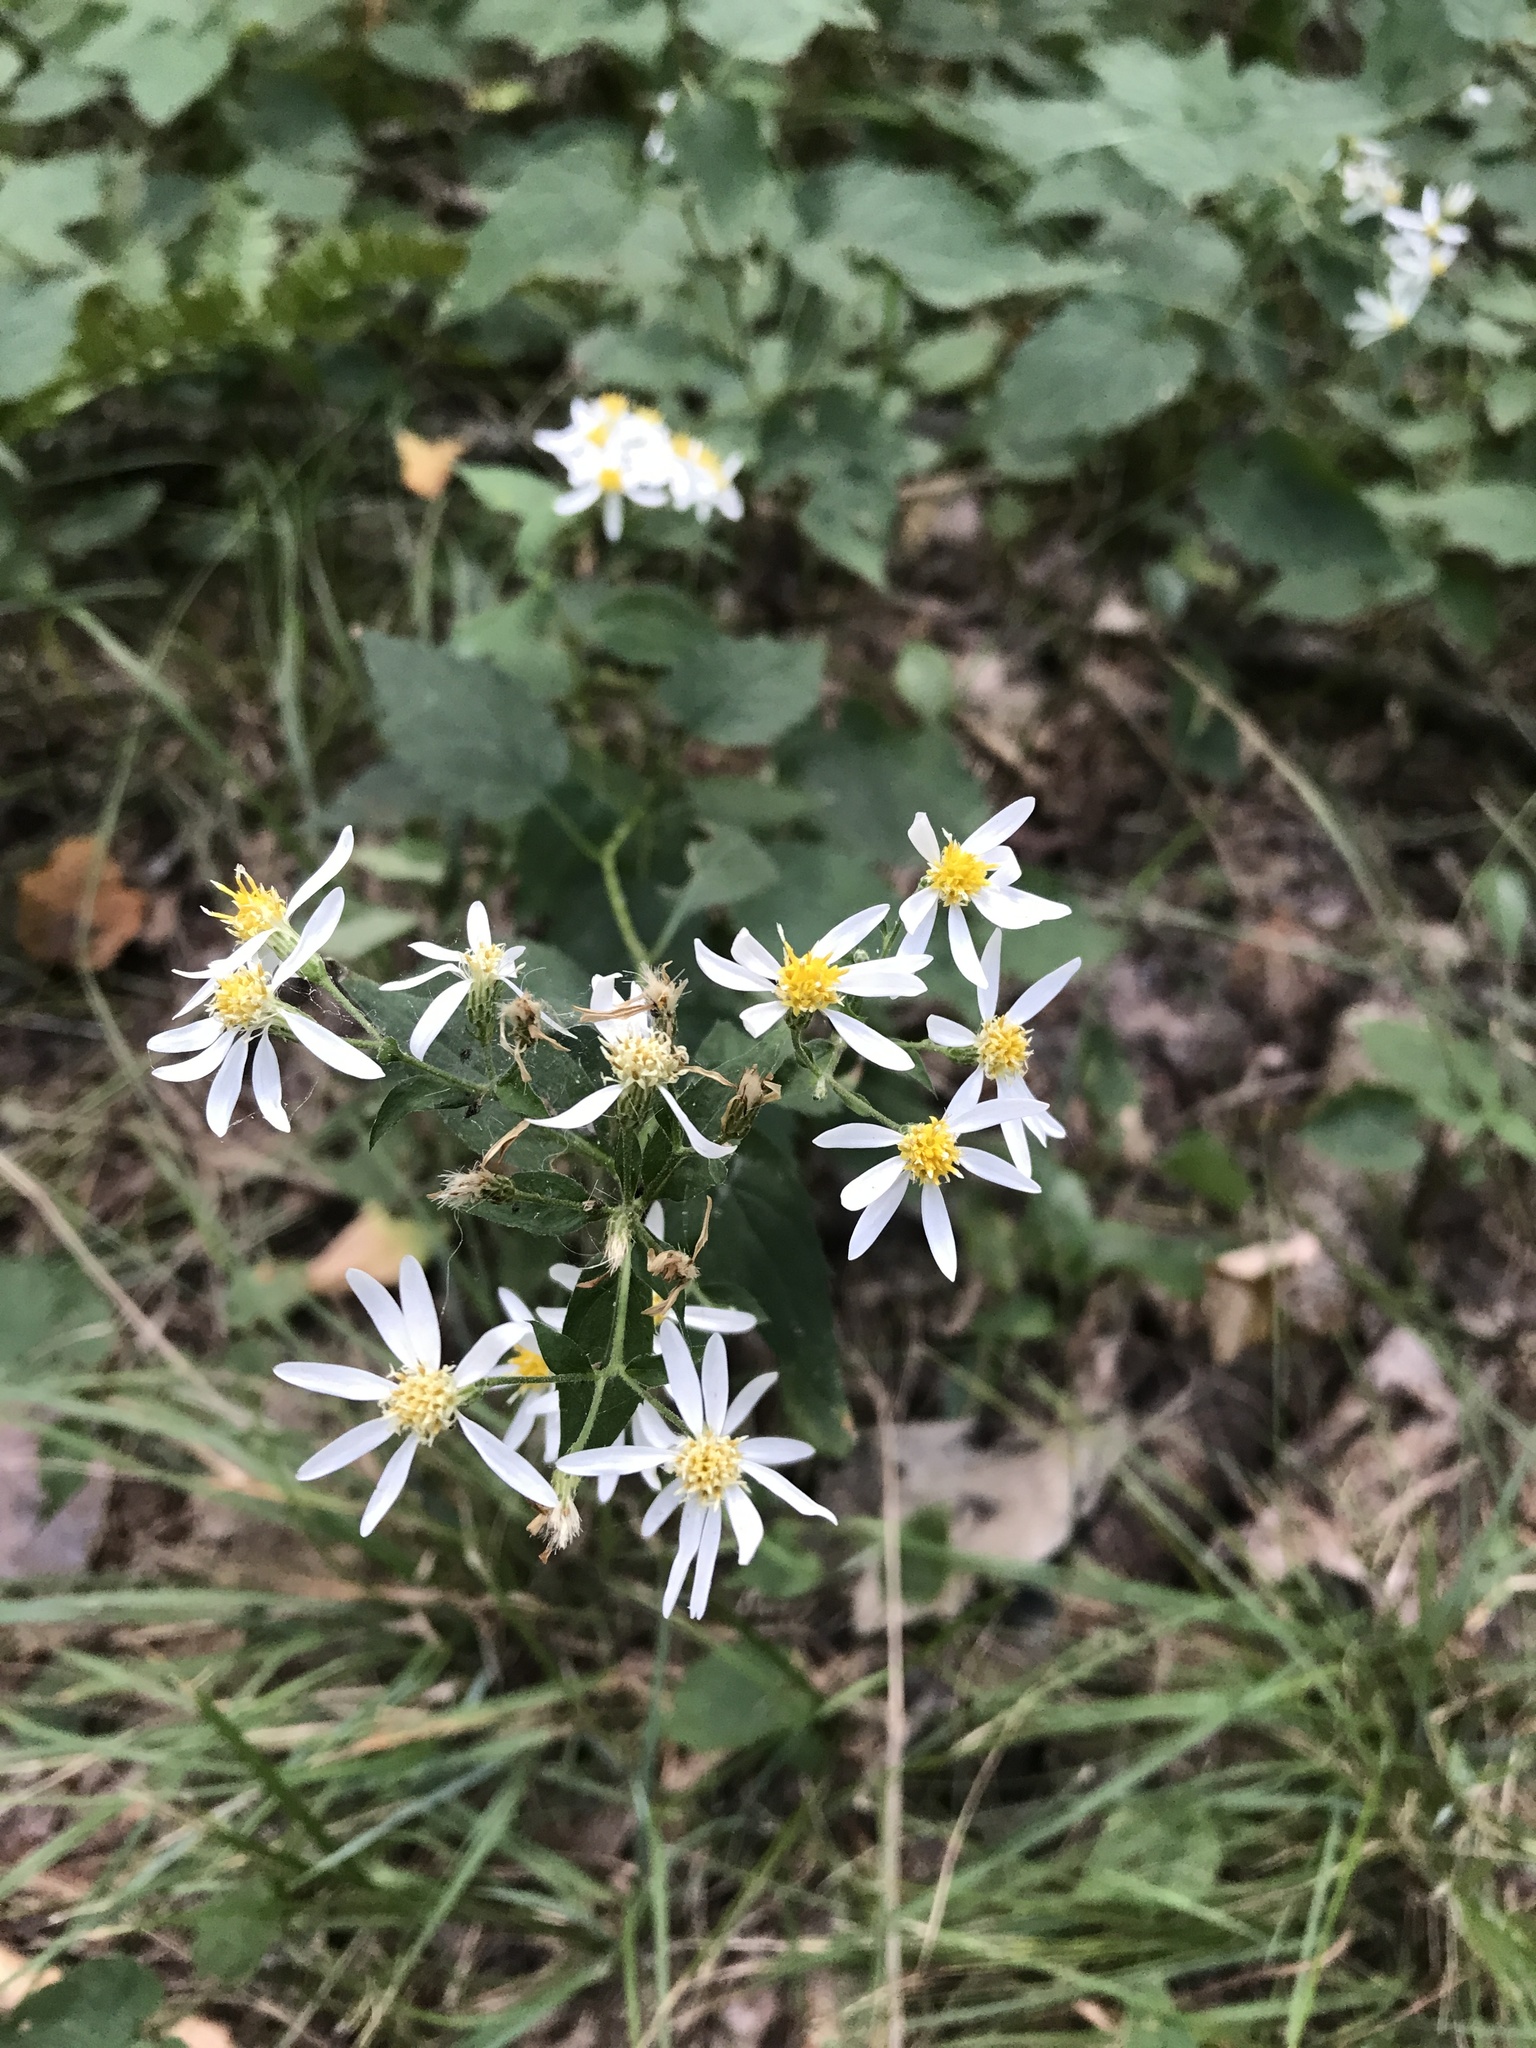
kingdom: Plantae
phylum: Tracheophyta
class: Magnoliopsida
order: Asterales
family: Asteraceae
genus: Eurybia
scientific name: Eurybia divaricata
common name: White wood aster
